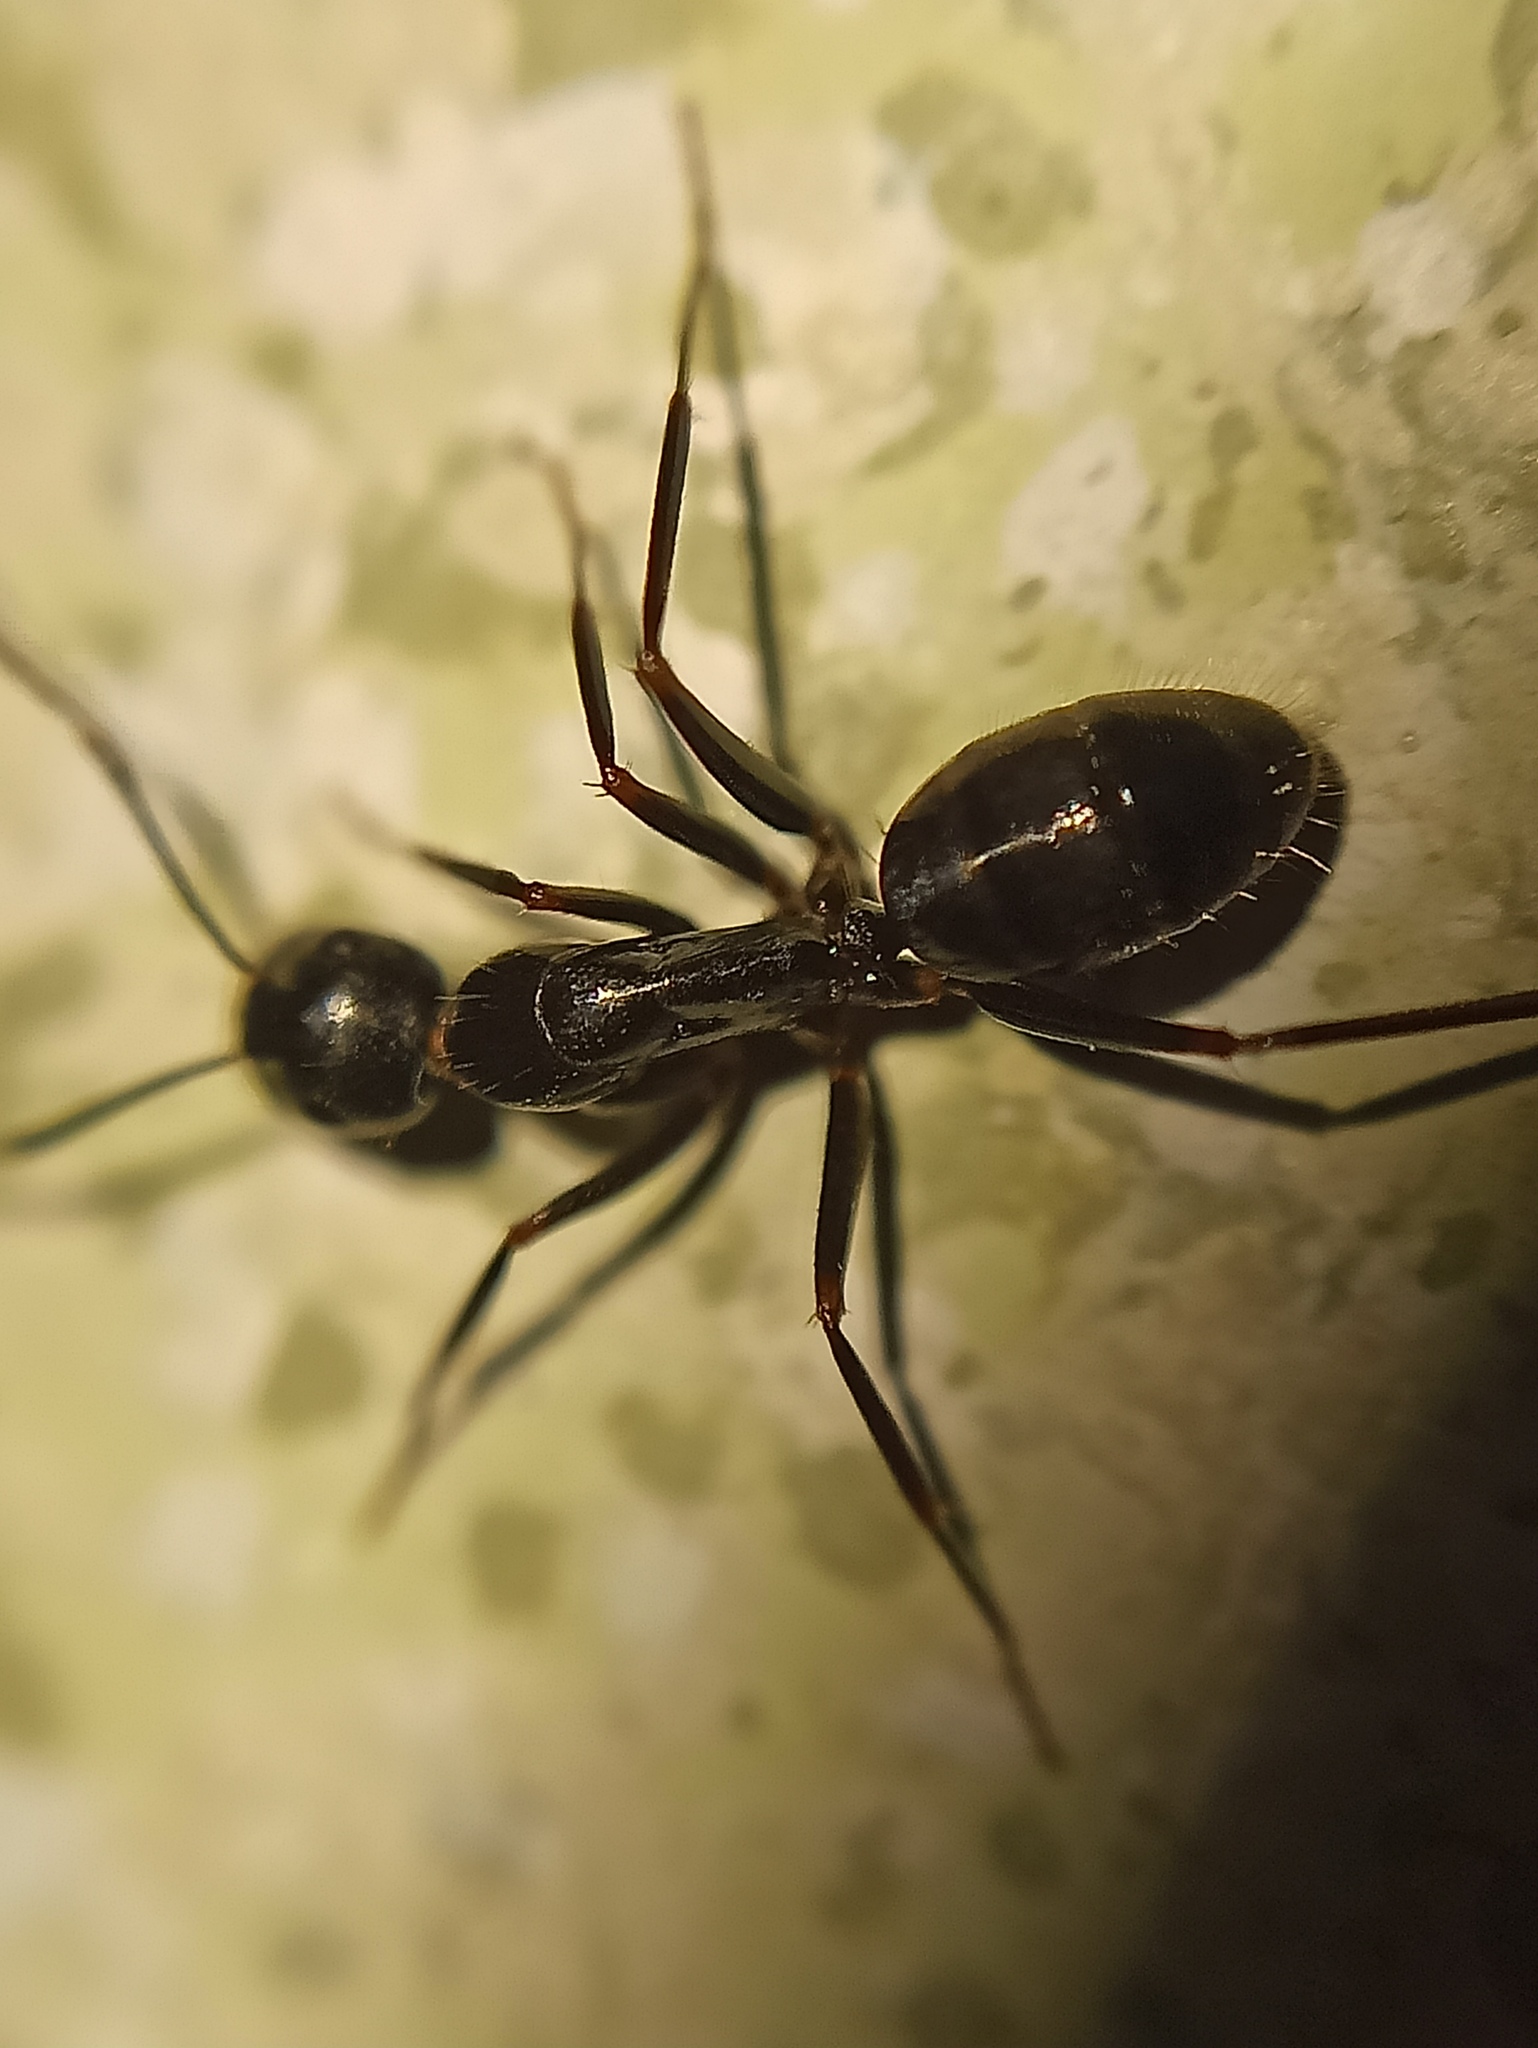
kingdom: Animalia
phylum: Arthropoda
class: Insecta
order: Hymenoptera
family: Formicidae
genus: Camponotus
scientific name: Camponotus aethiops
